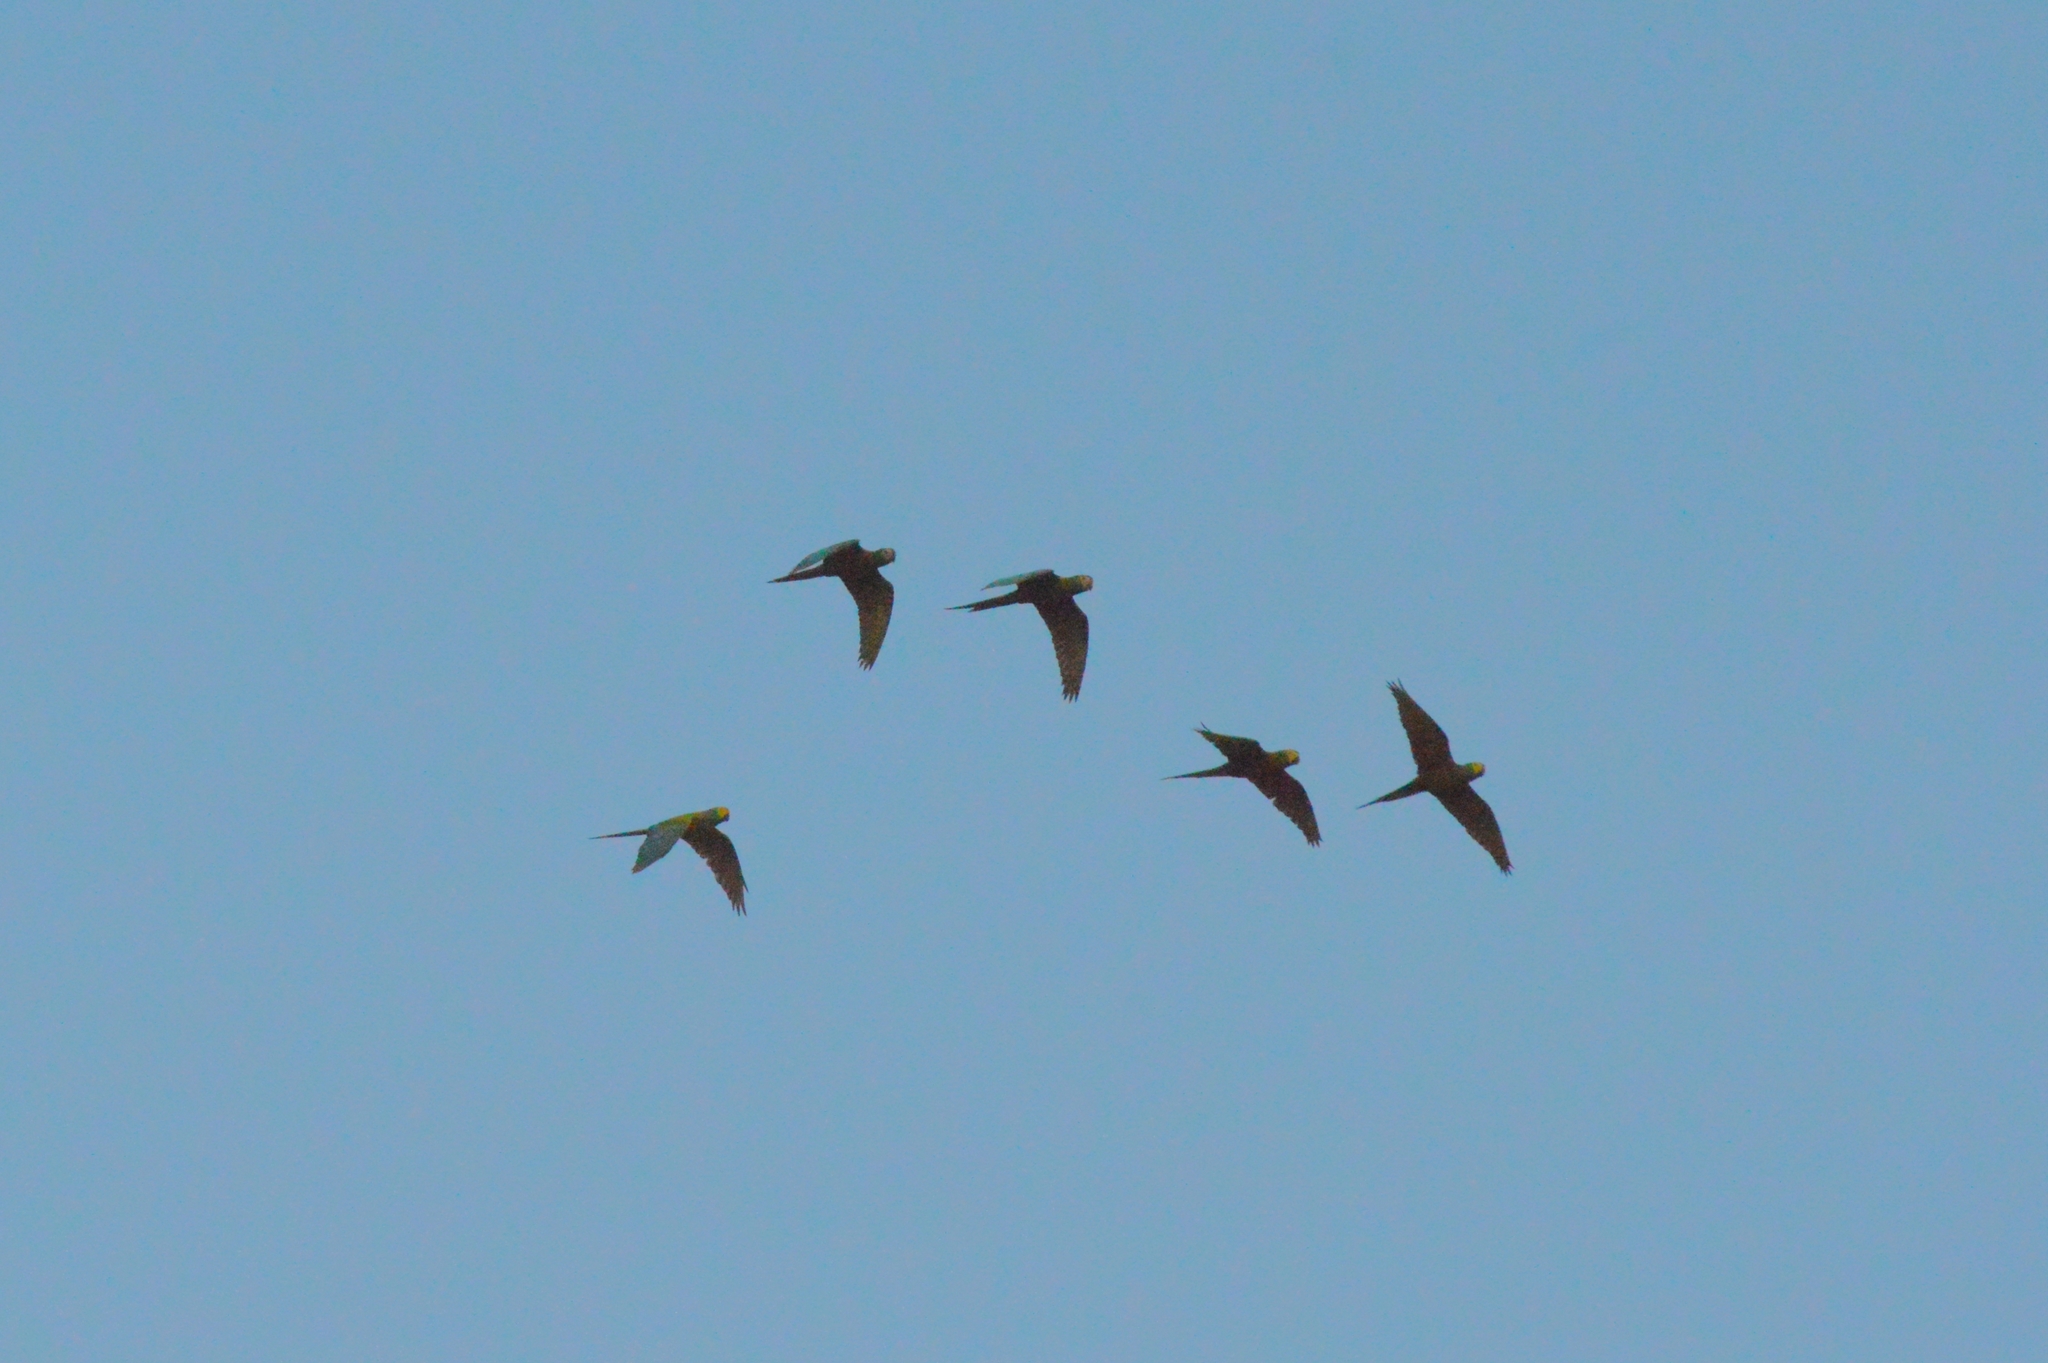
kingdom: Animalia
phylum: Chordata
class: Aves
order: Psittaciformes
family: Psittacidae
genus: Orthopsittaca
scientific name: Orthopsittaca manilata
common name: Red-bellied macaw
